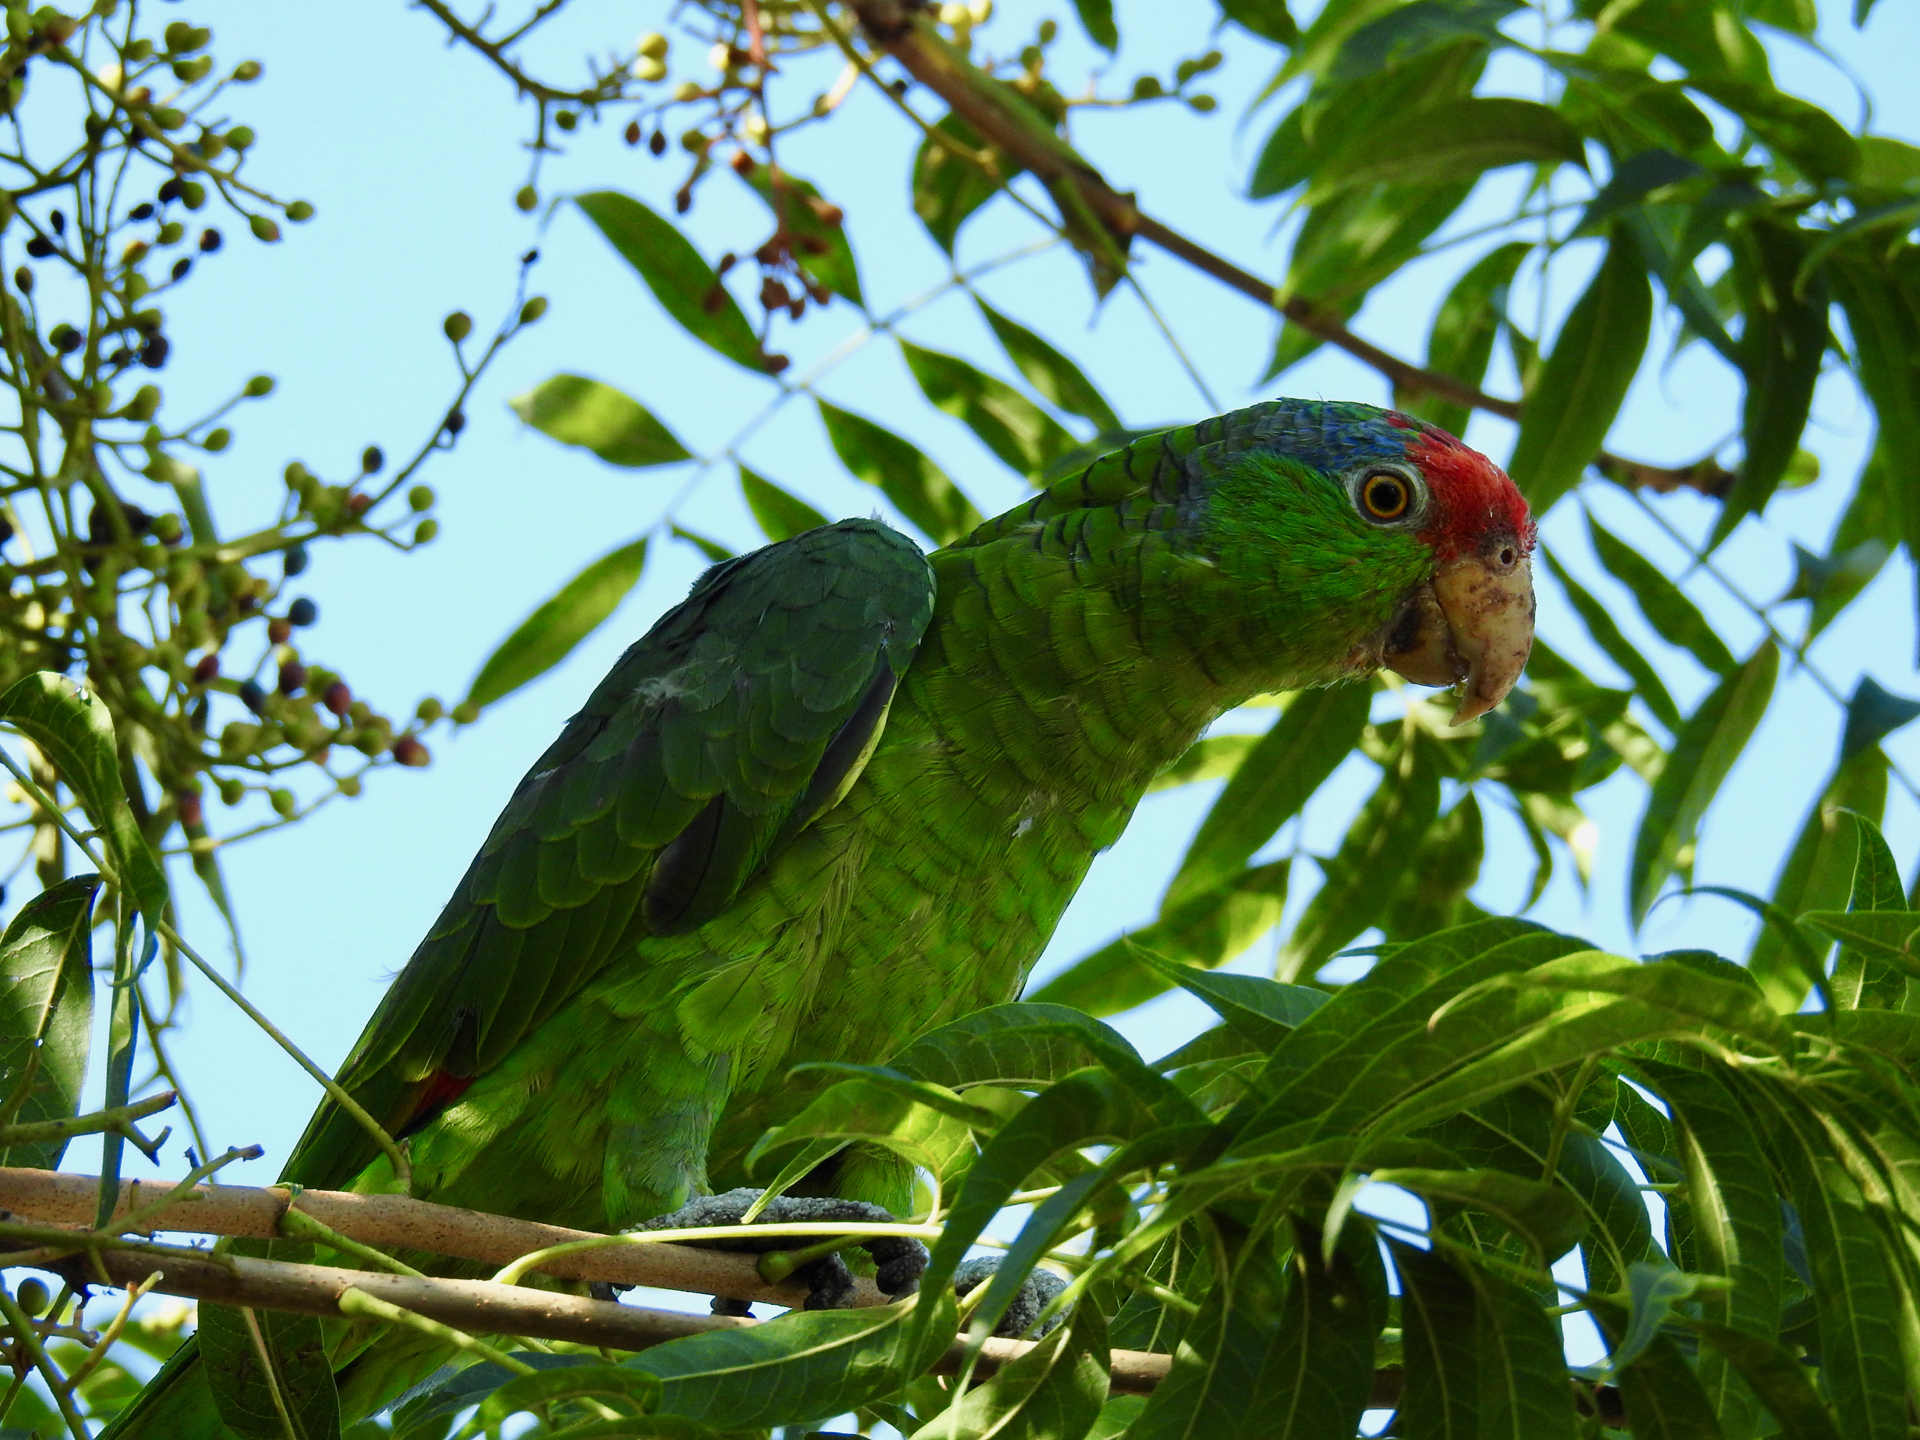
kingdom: Animalia
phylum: Chordata
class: Aves
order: Psittaciformes
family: Psittacidae
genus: Amazona
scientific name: Amazona viridigenalis
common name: Red-crowned amazon
